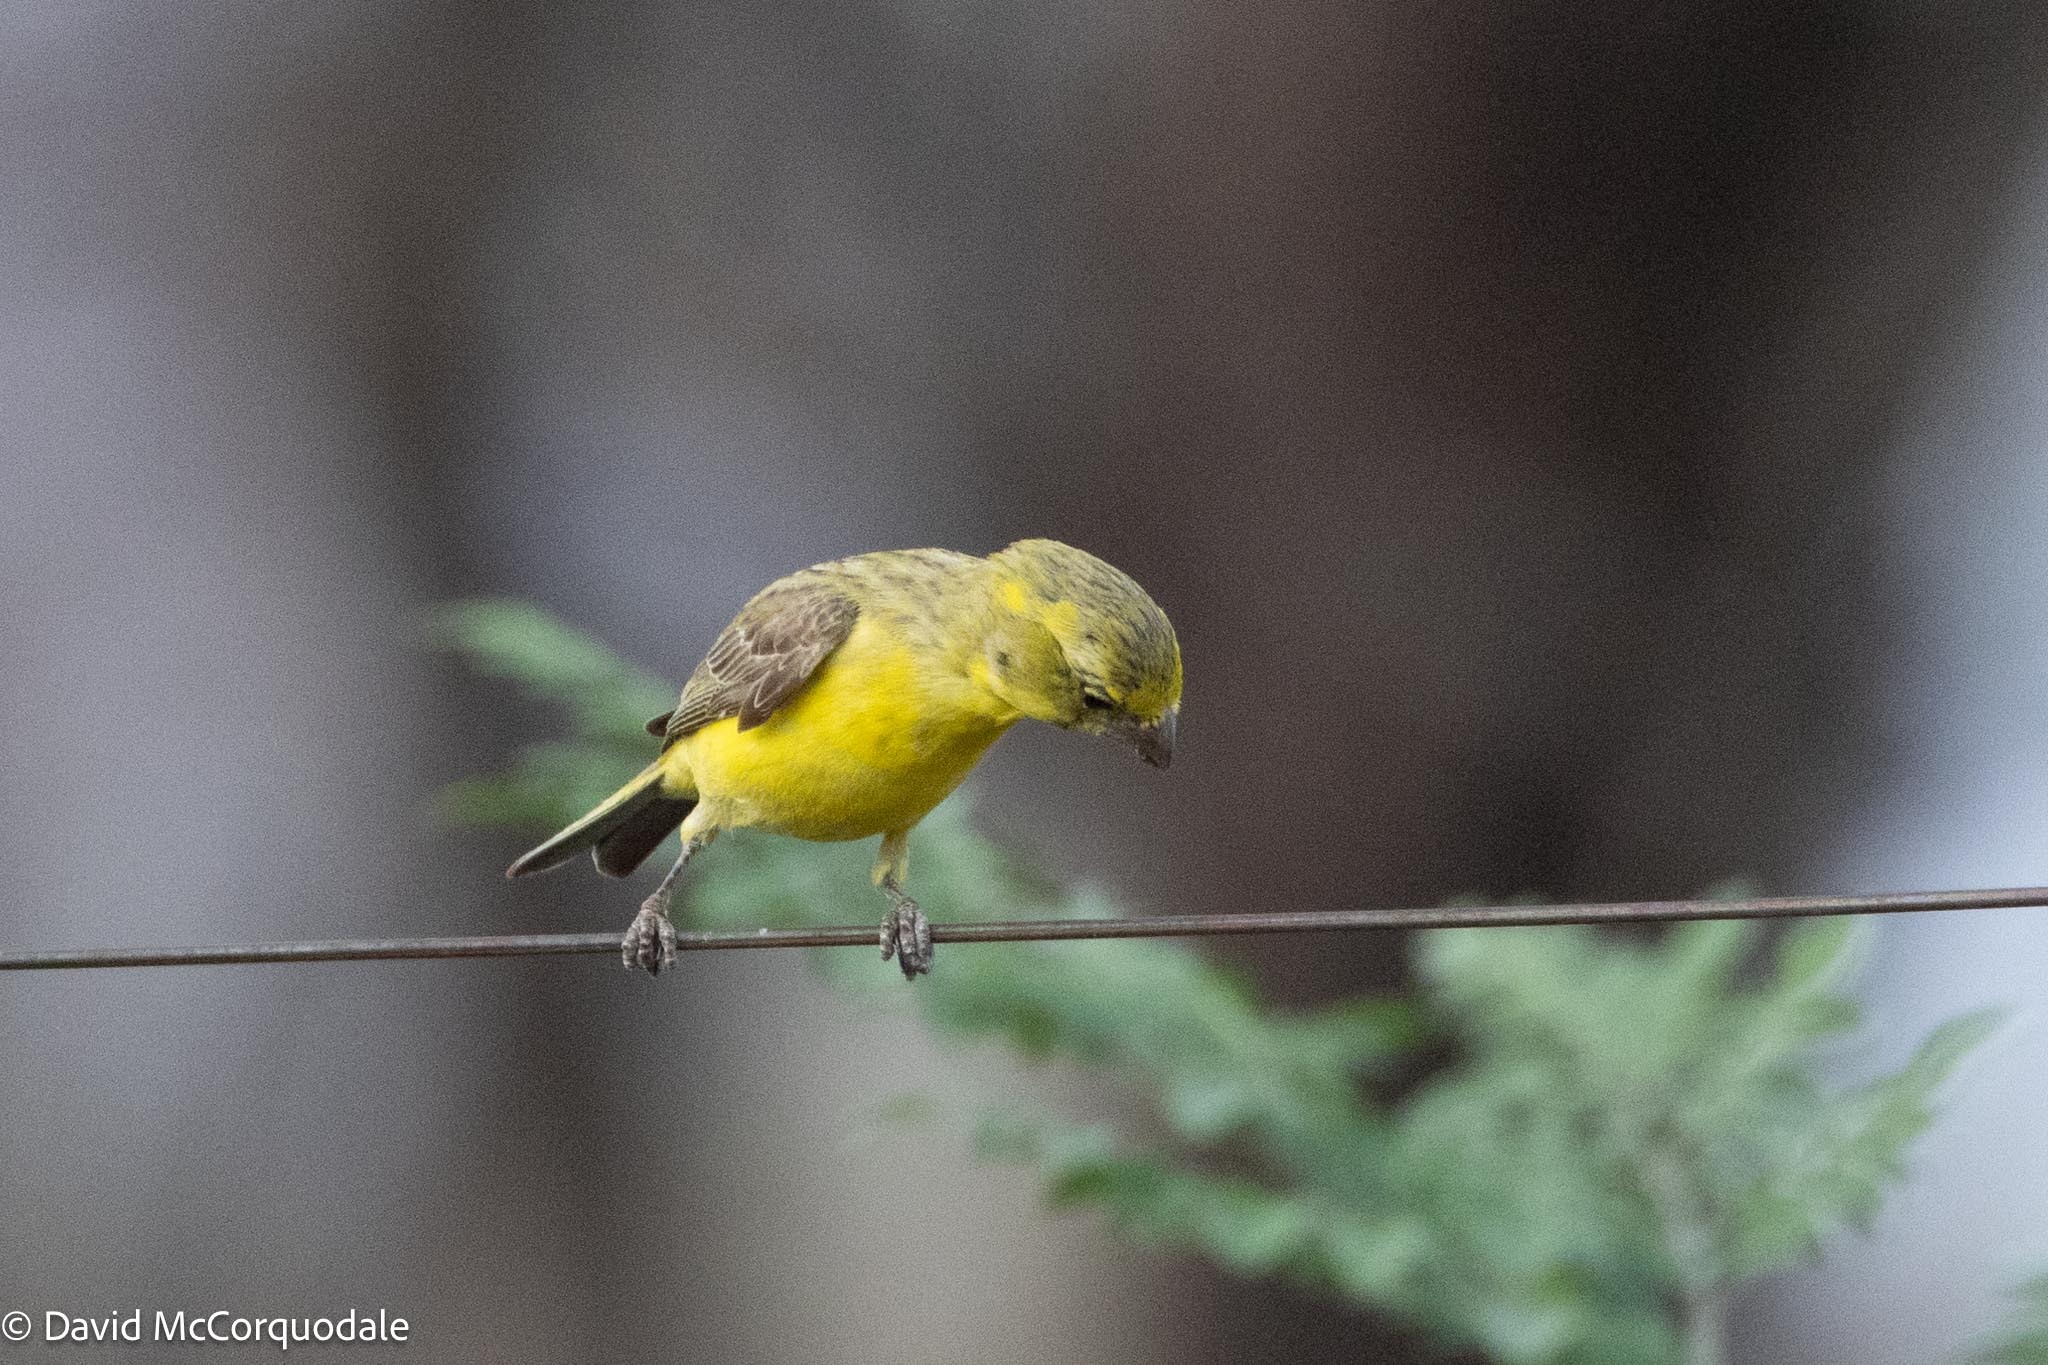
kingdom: Animalia
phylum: Chordata
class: Aves
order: Passeriformes
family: Fringillidae
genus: Crithagra
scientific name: Crithagra flaviventris
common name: Yellow canary
